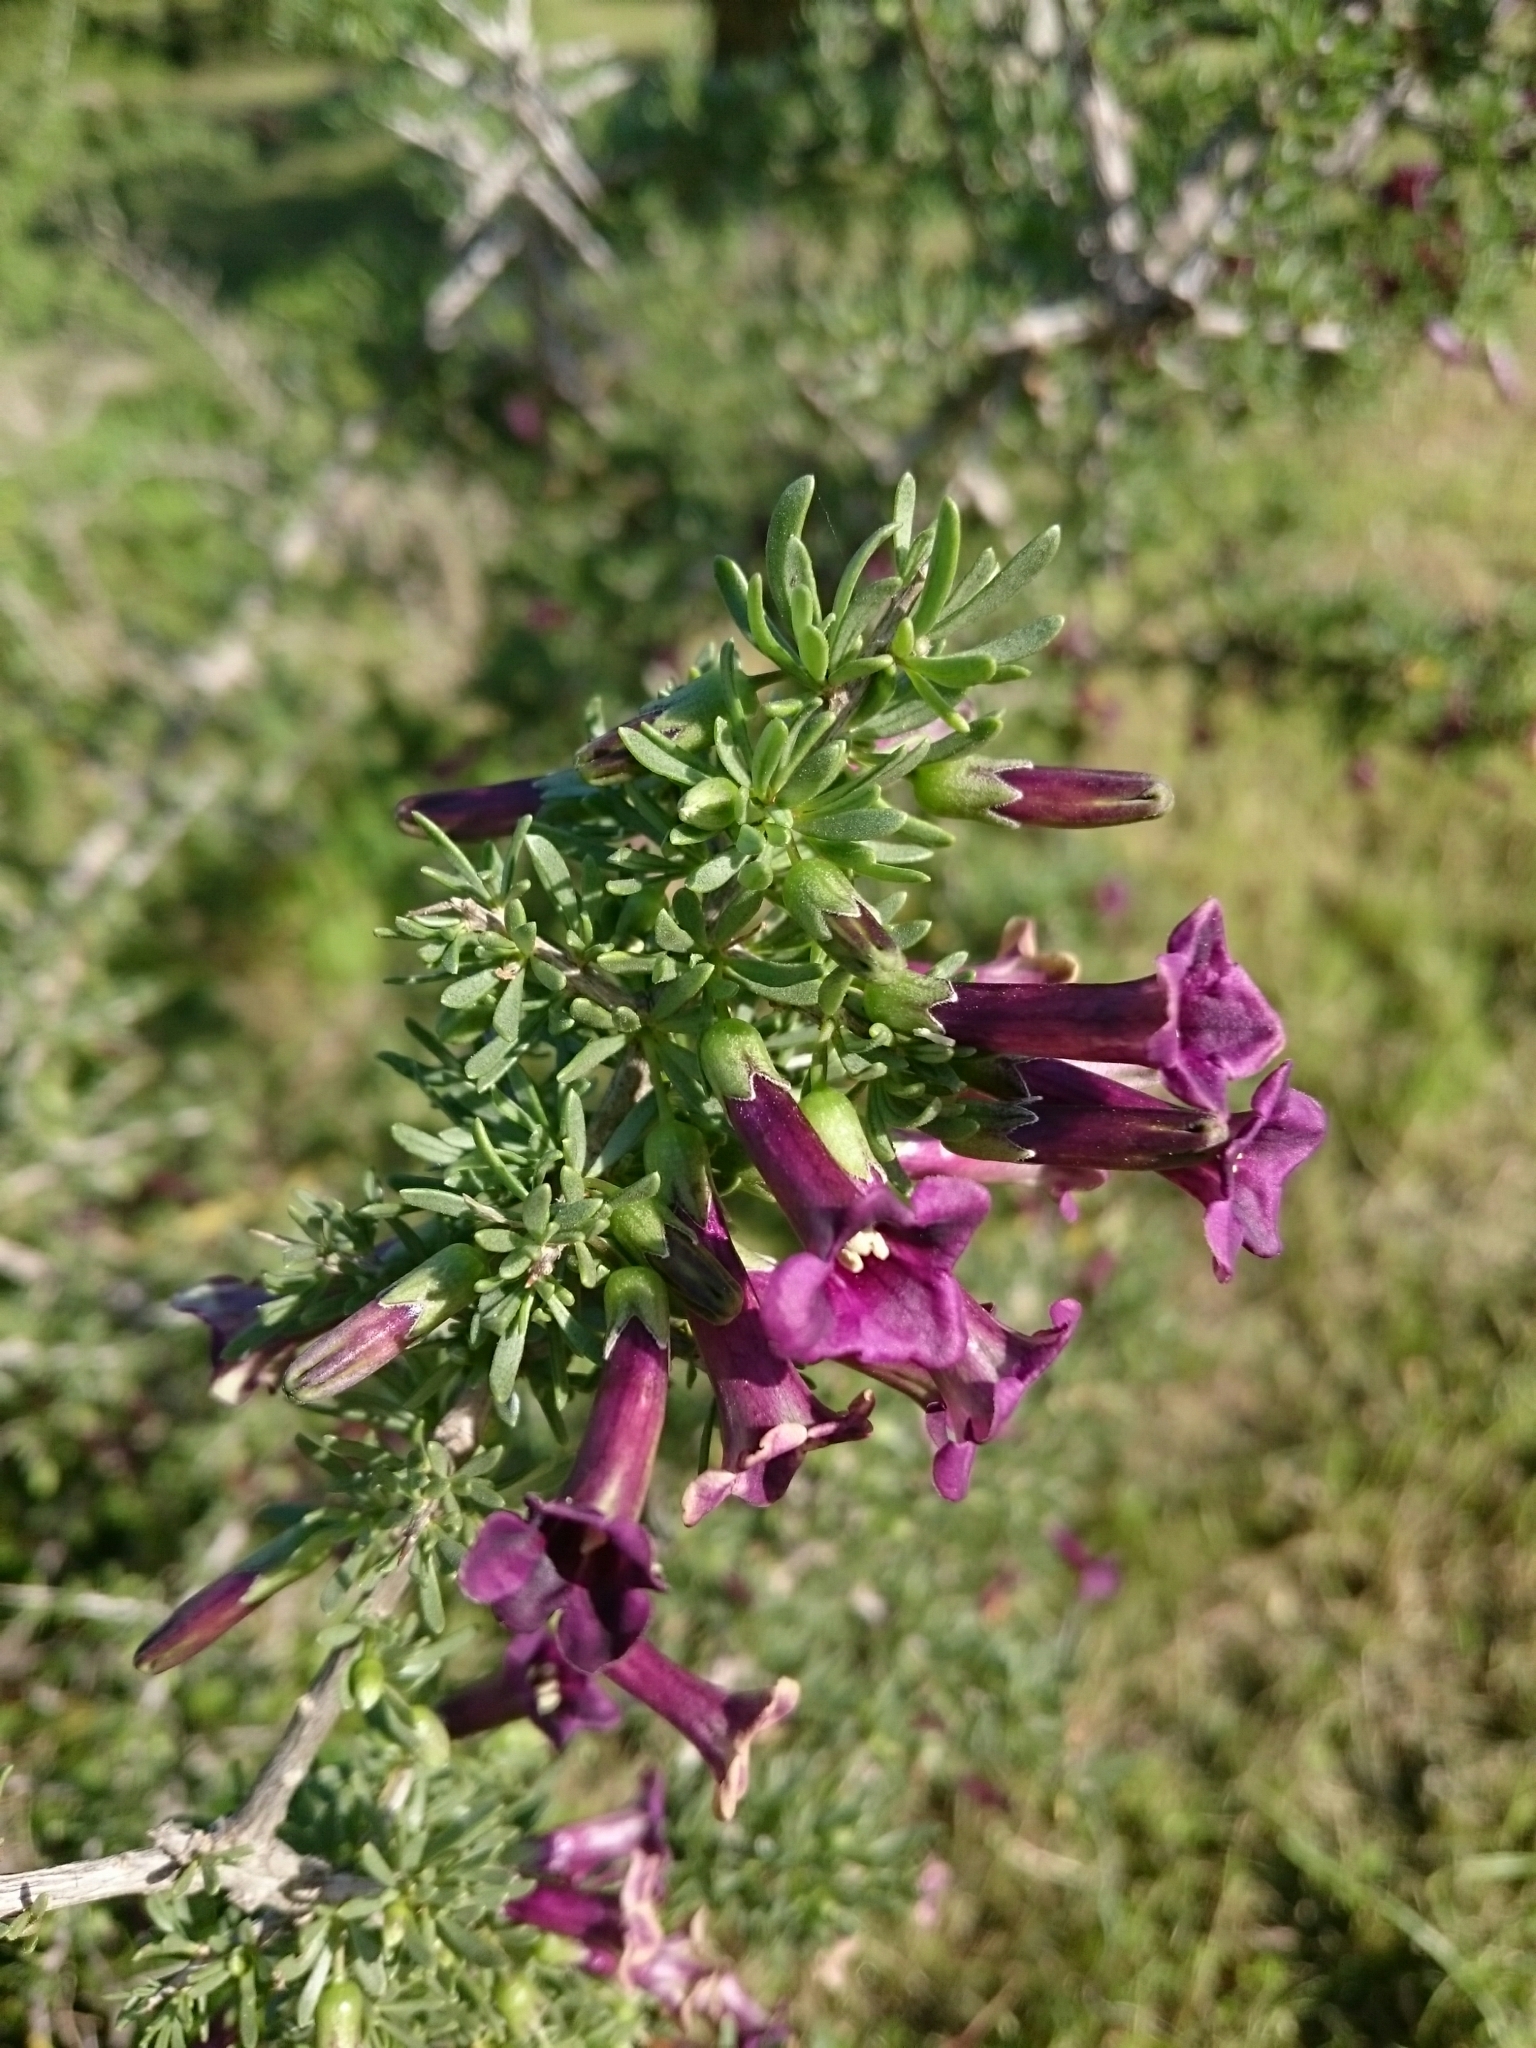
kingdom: Plantae
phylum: Tracheophyta
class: Magnoliopsida
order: Solanales
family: Solanaceae
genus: Lycium
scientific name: Lycium afrum
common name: Kaffir boxthorn
